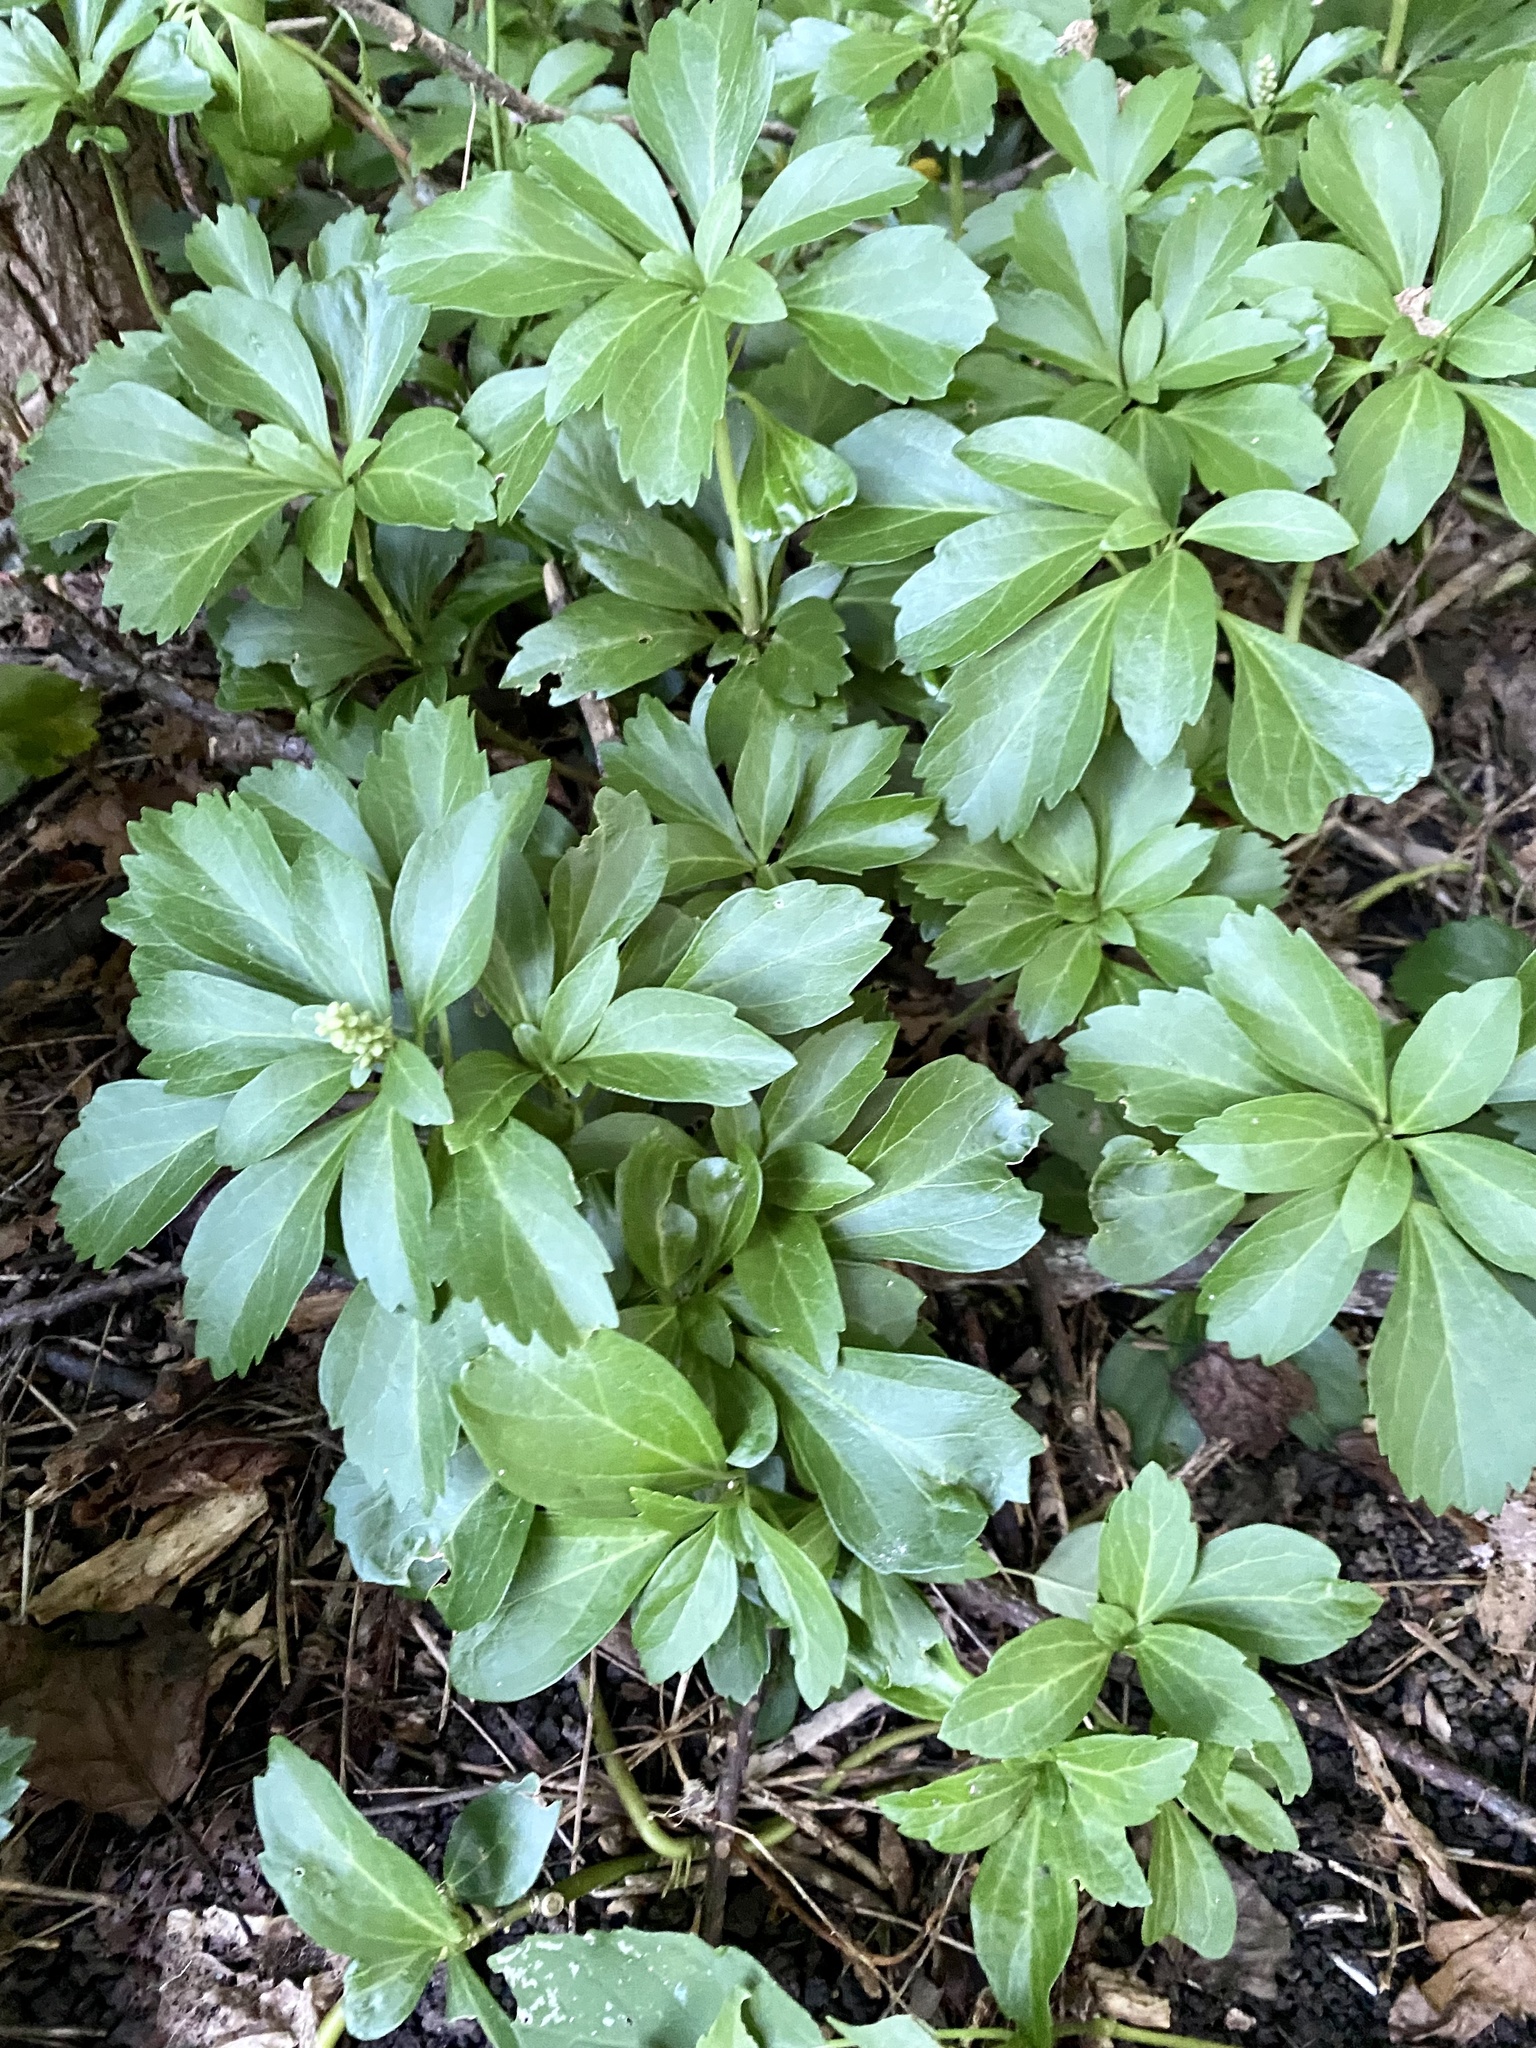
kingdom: Plantae
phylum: Tracheophyta
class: Magnoliopsida
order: Buxales
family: Buxaceae
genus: Pachysandra
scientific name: Pachysandra terminalis
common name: Japanese pachysandra
